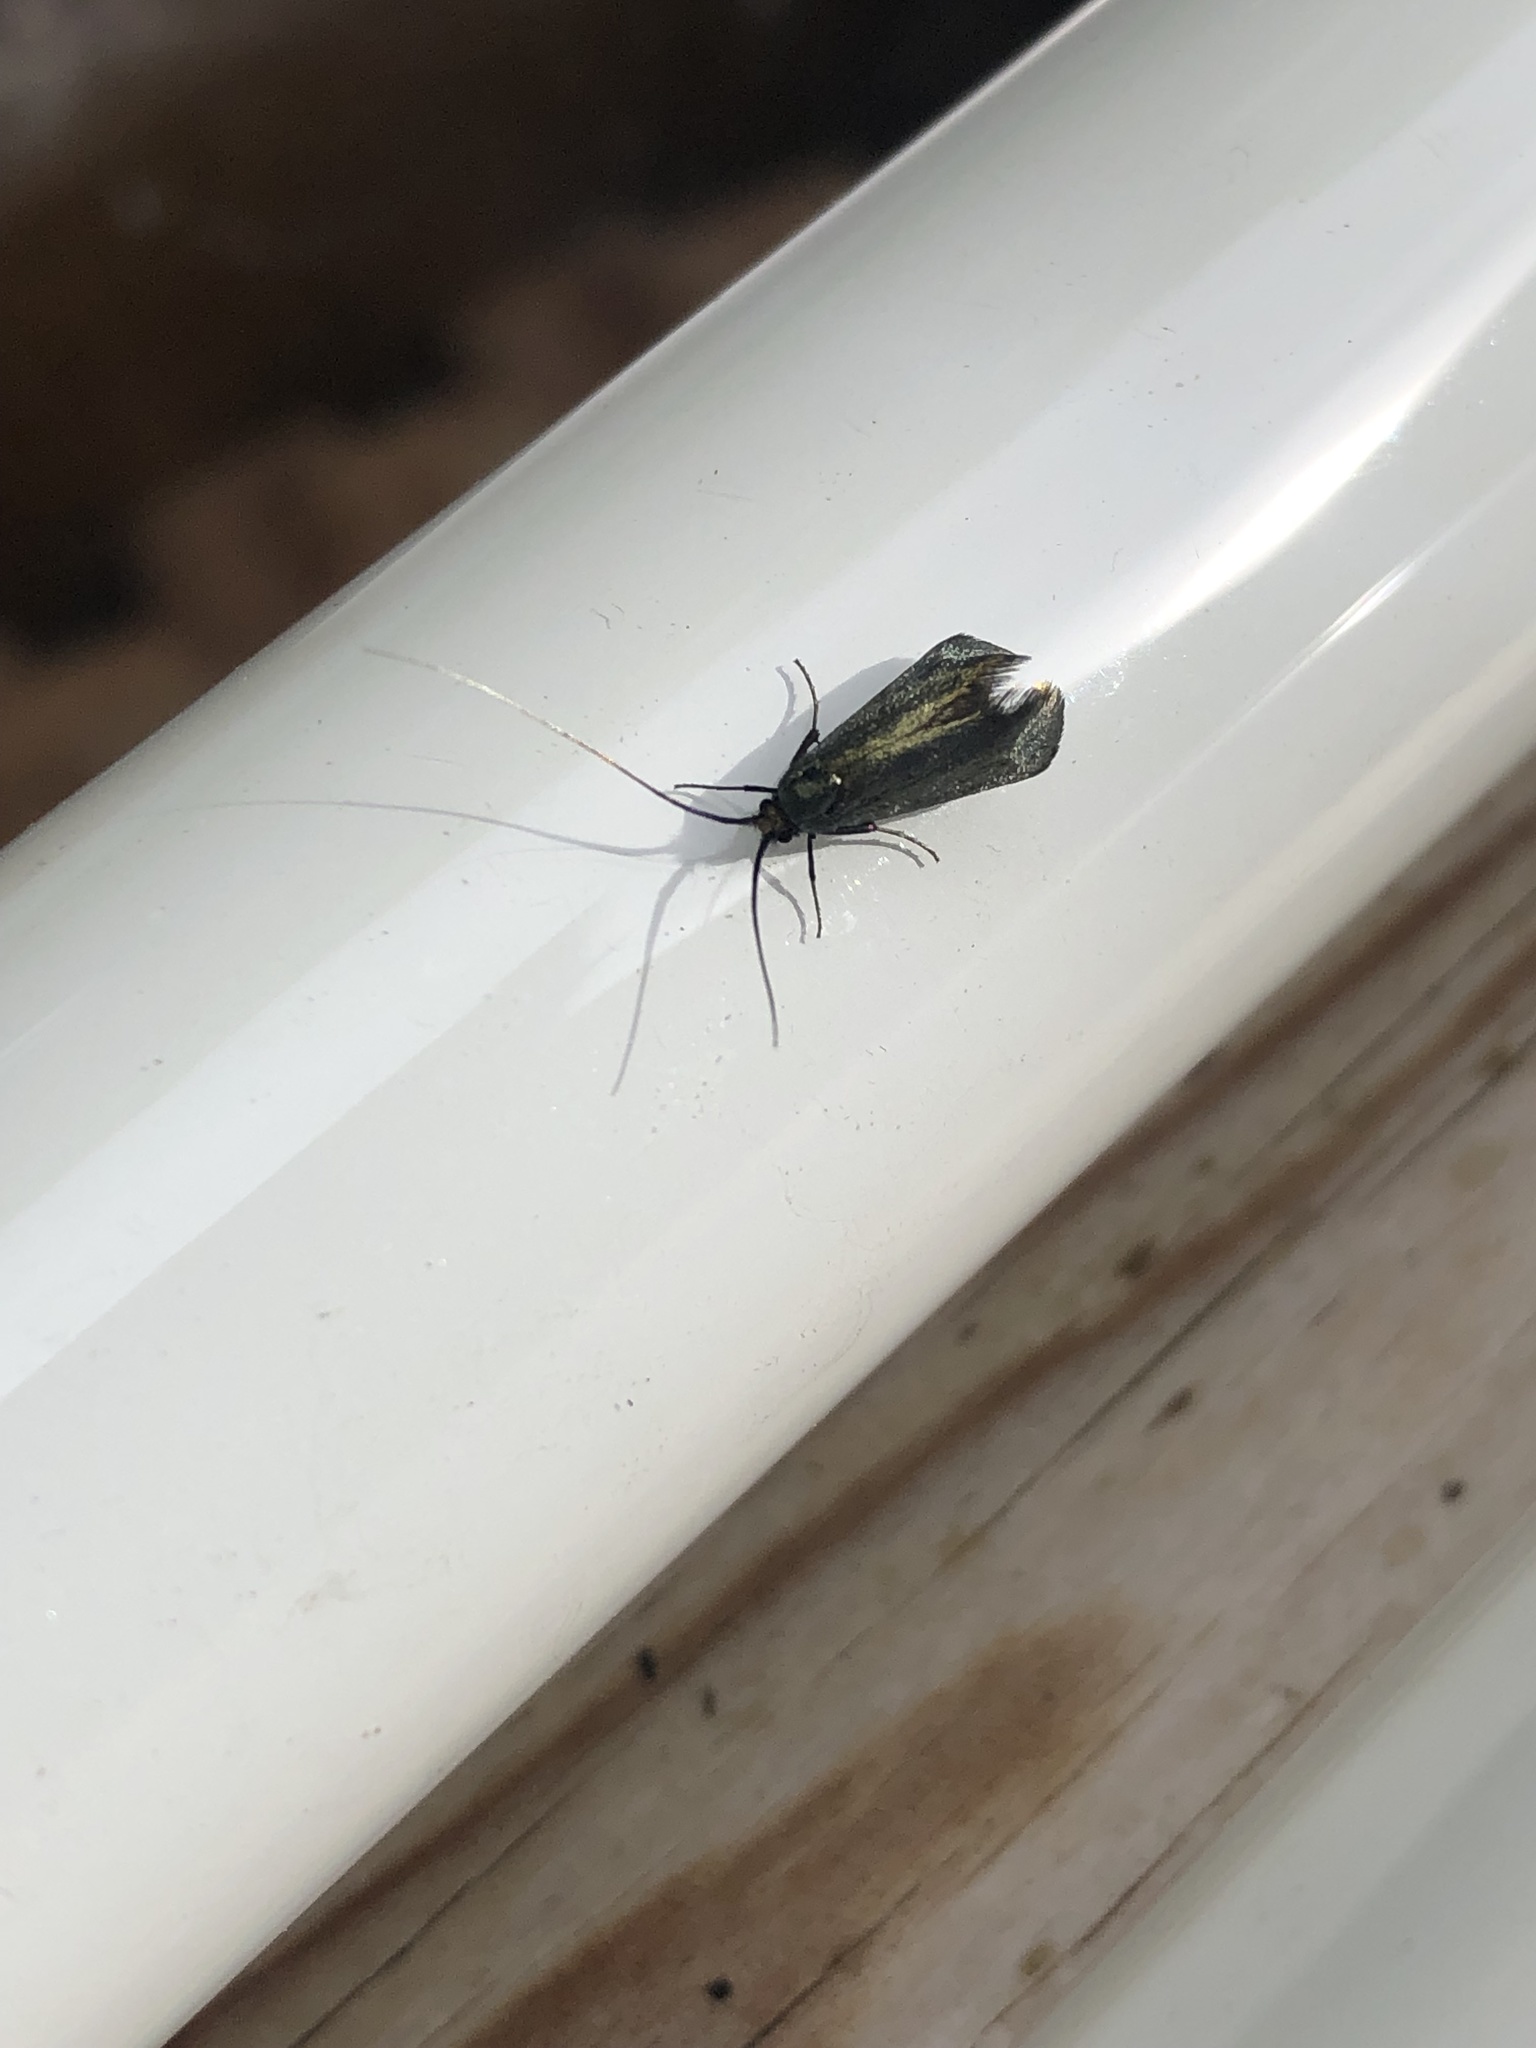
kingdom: Animalia
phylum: Arthropoda
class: Insecta
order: Lepidoptera
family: Adelidae
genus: Adela
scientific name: Adela viridella
